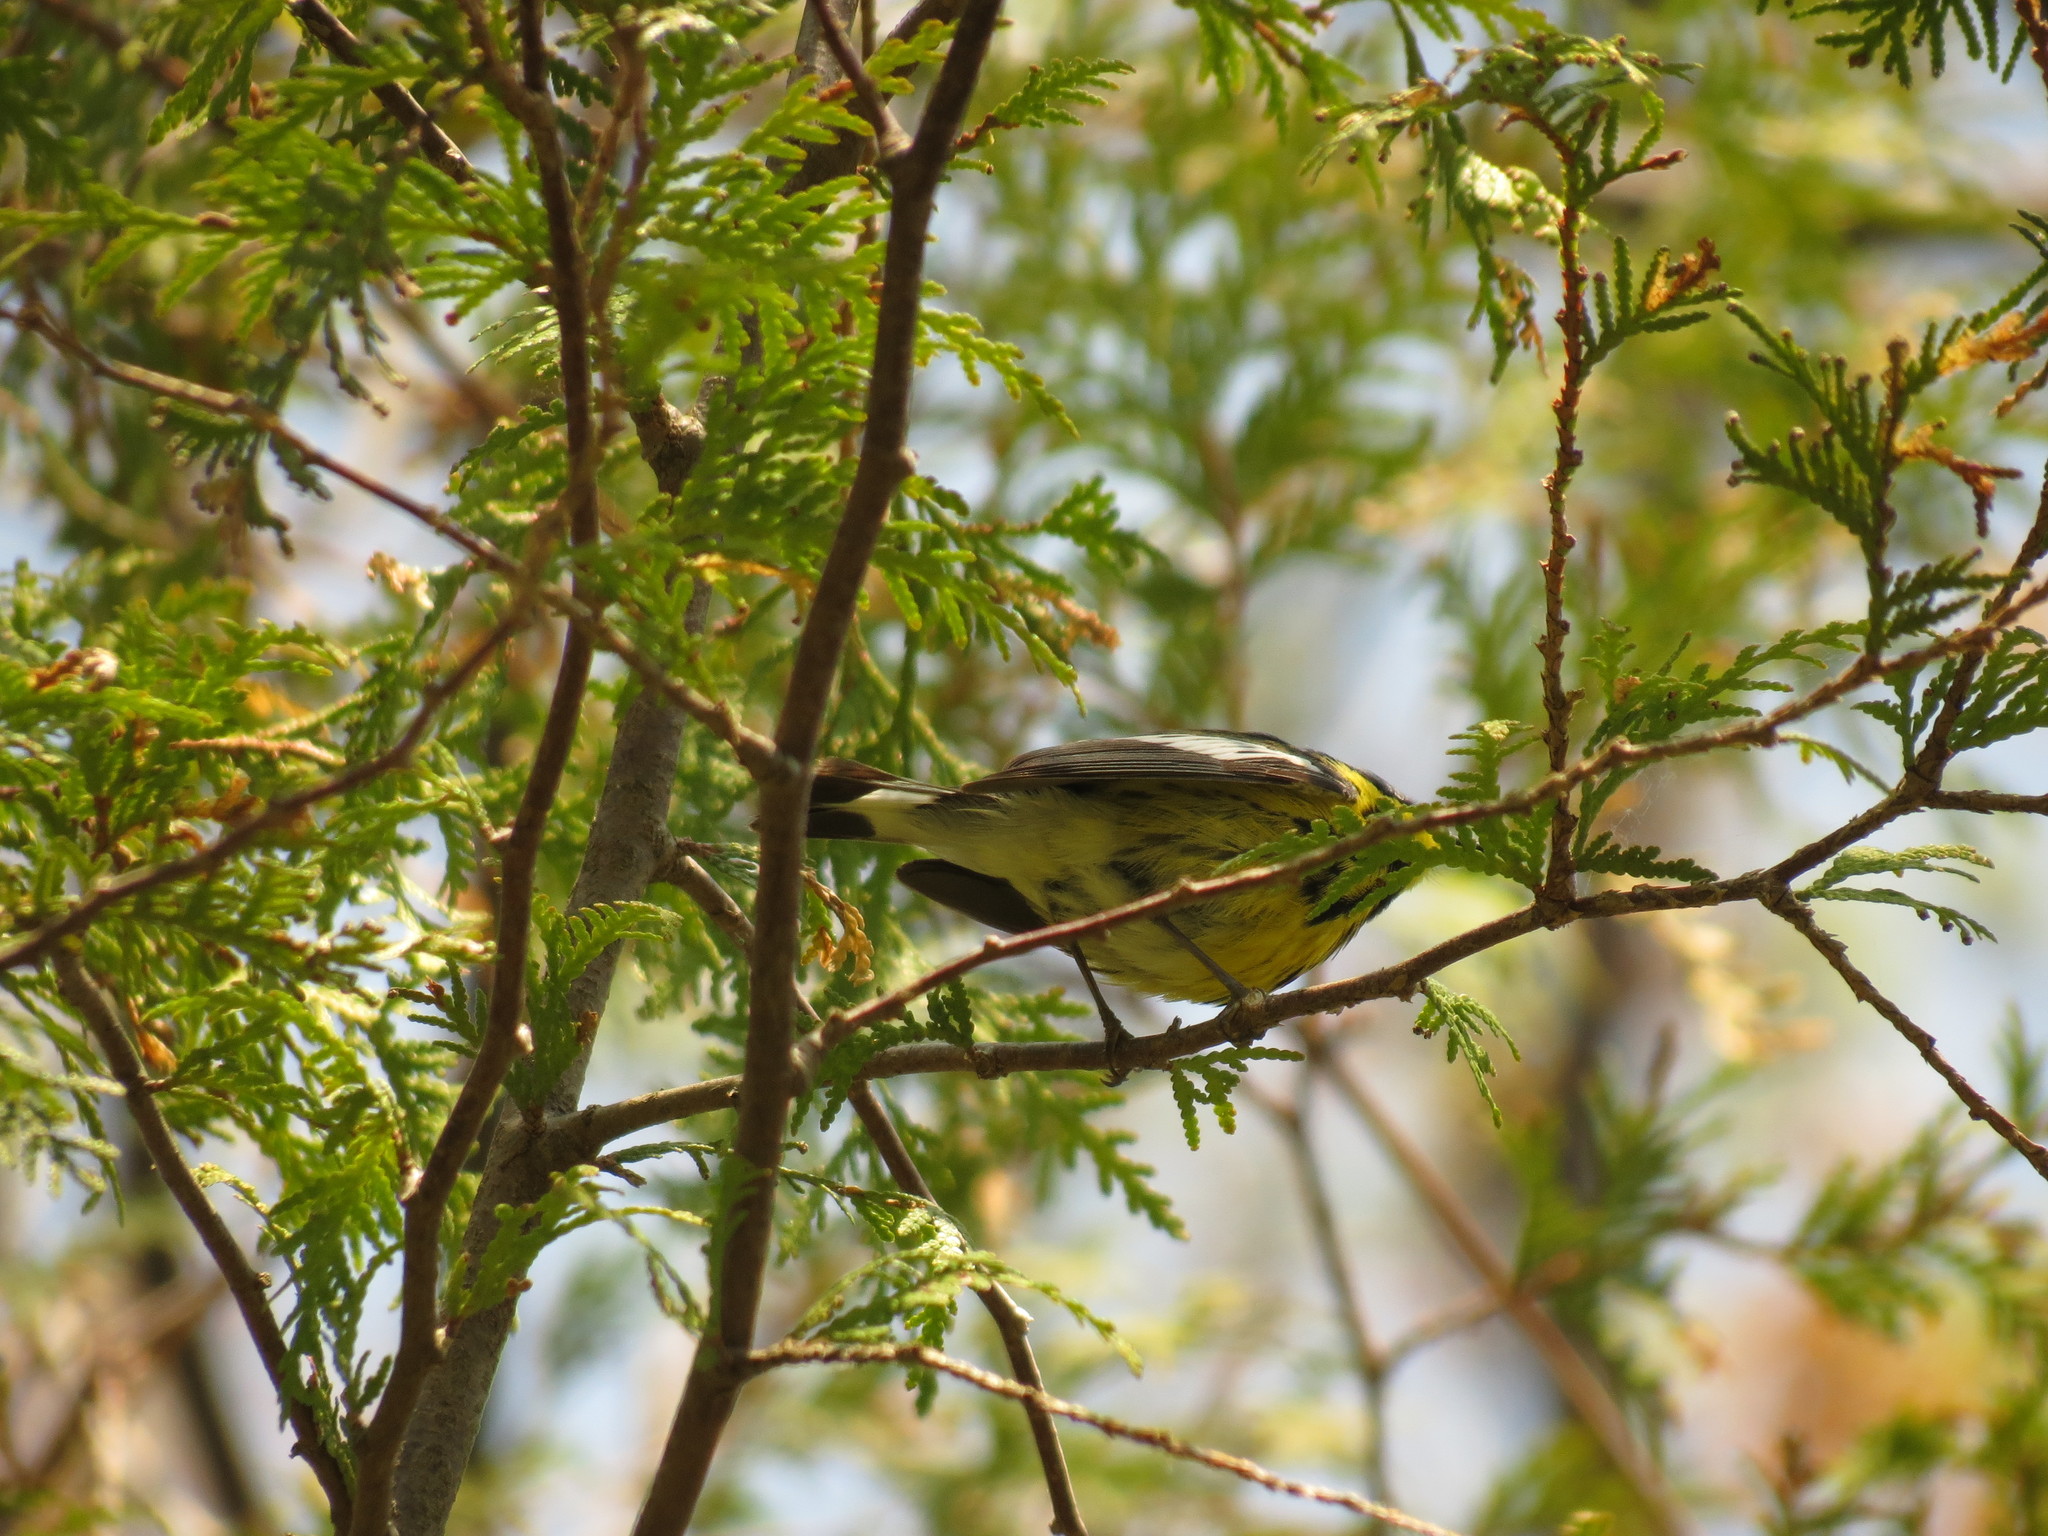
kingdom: Animalia
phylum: Chordata
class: Aves
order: Passeriformes
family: Parulidae
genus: Setophaga
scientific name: Setophaga magnolia
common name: Magnolia warbler
